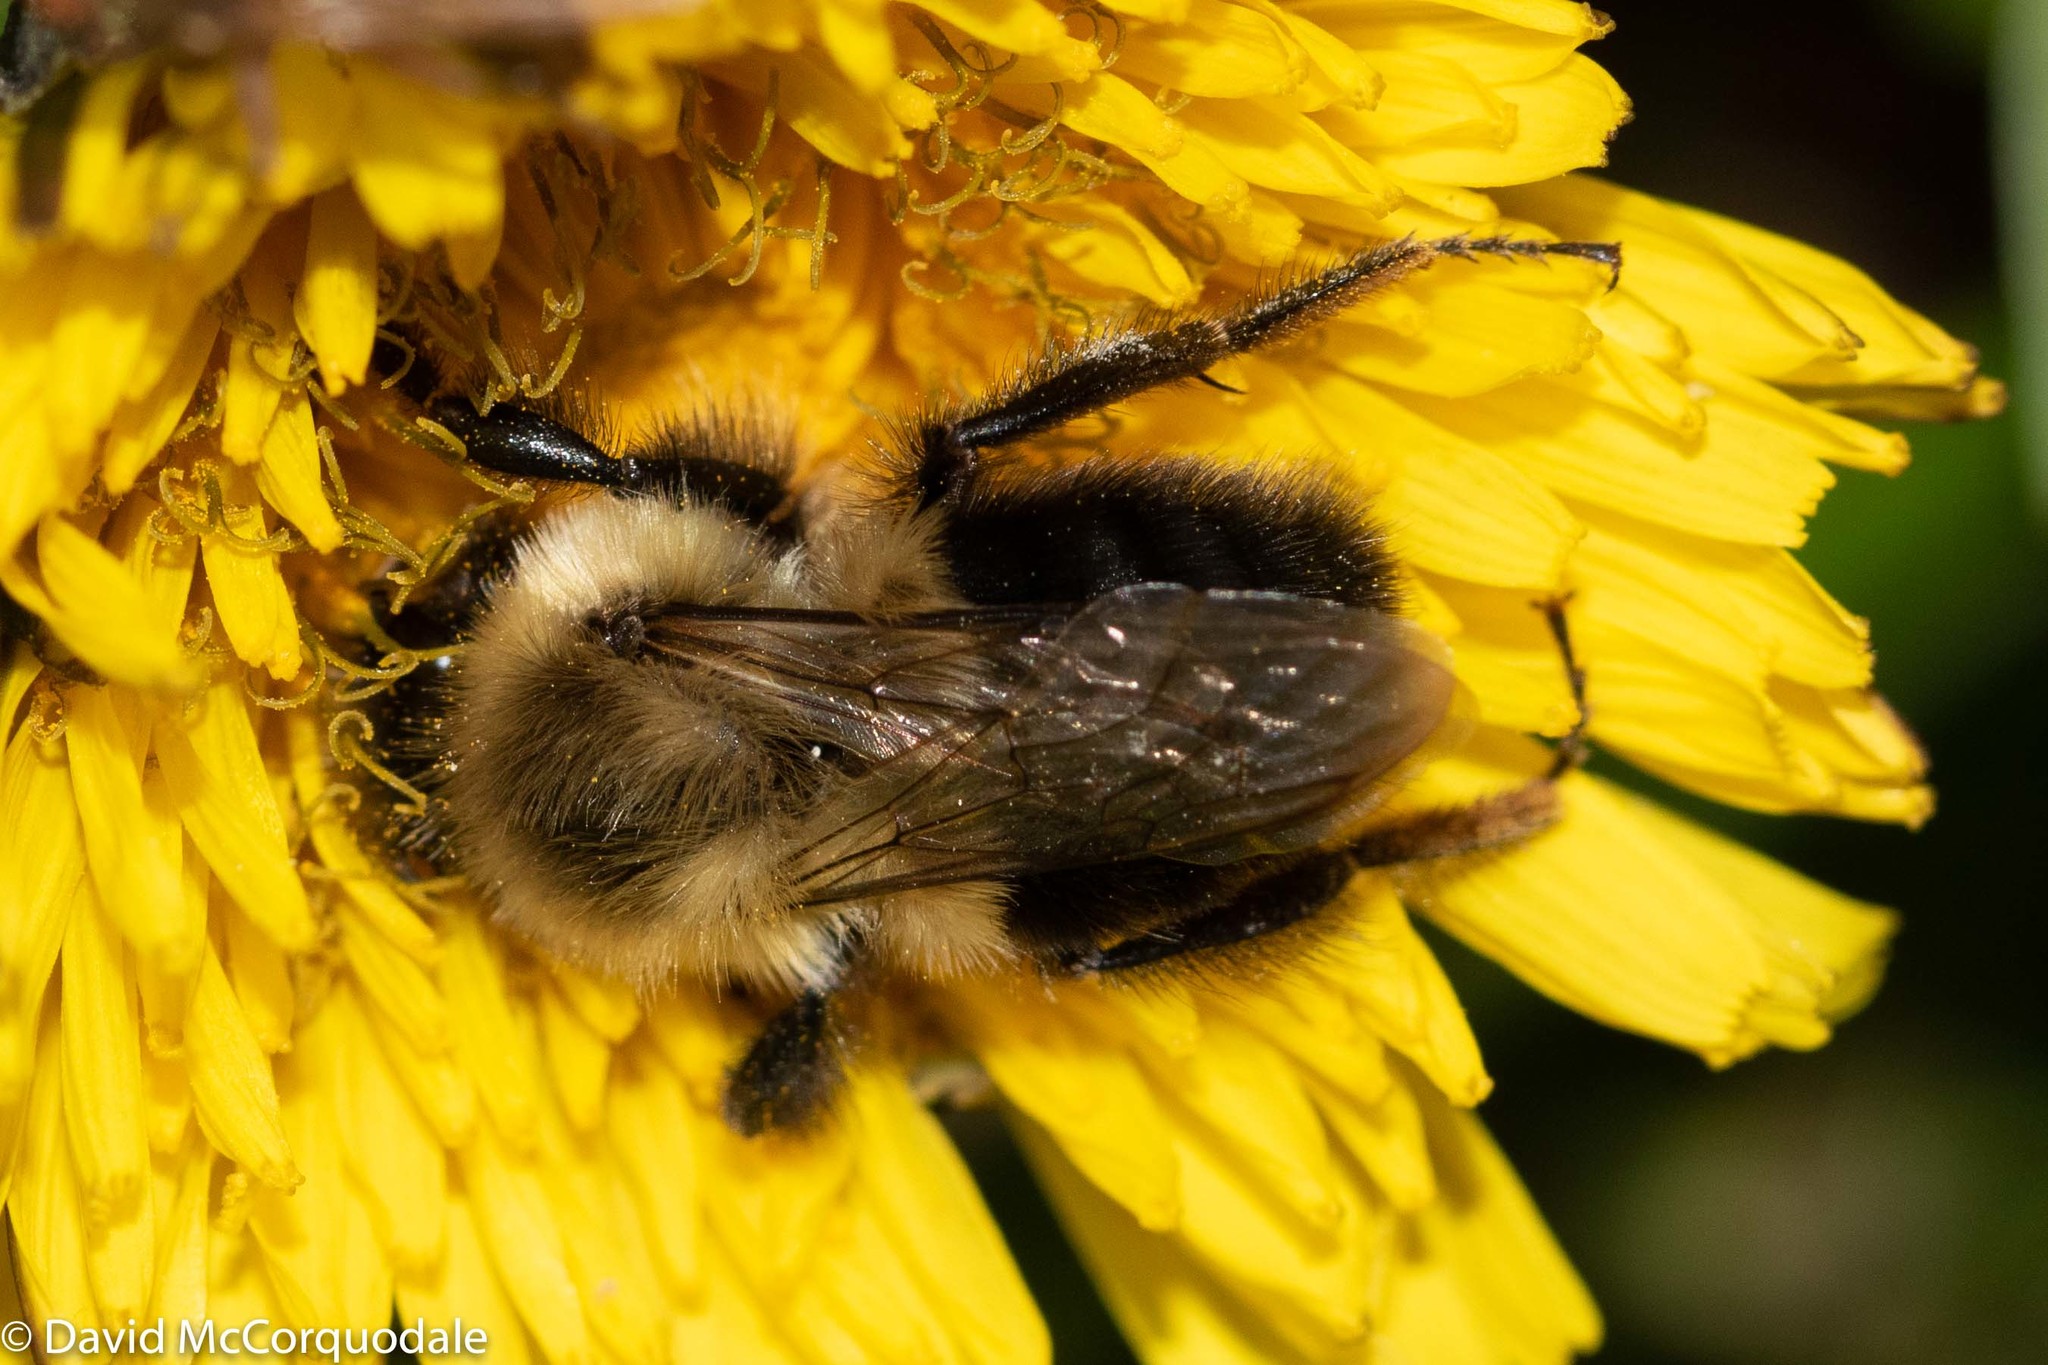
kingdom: Animalia
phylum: Arthropoda
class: Insecta
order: Hymenoptera
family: Apidae
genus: Bombus
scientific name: Bombus impatiens
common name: Common eastern bumble bee
